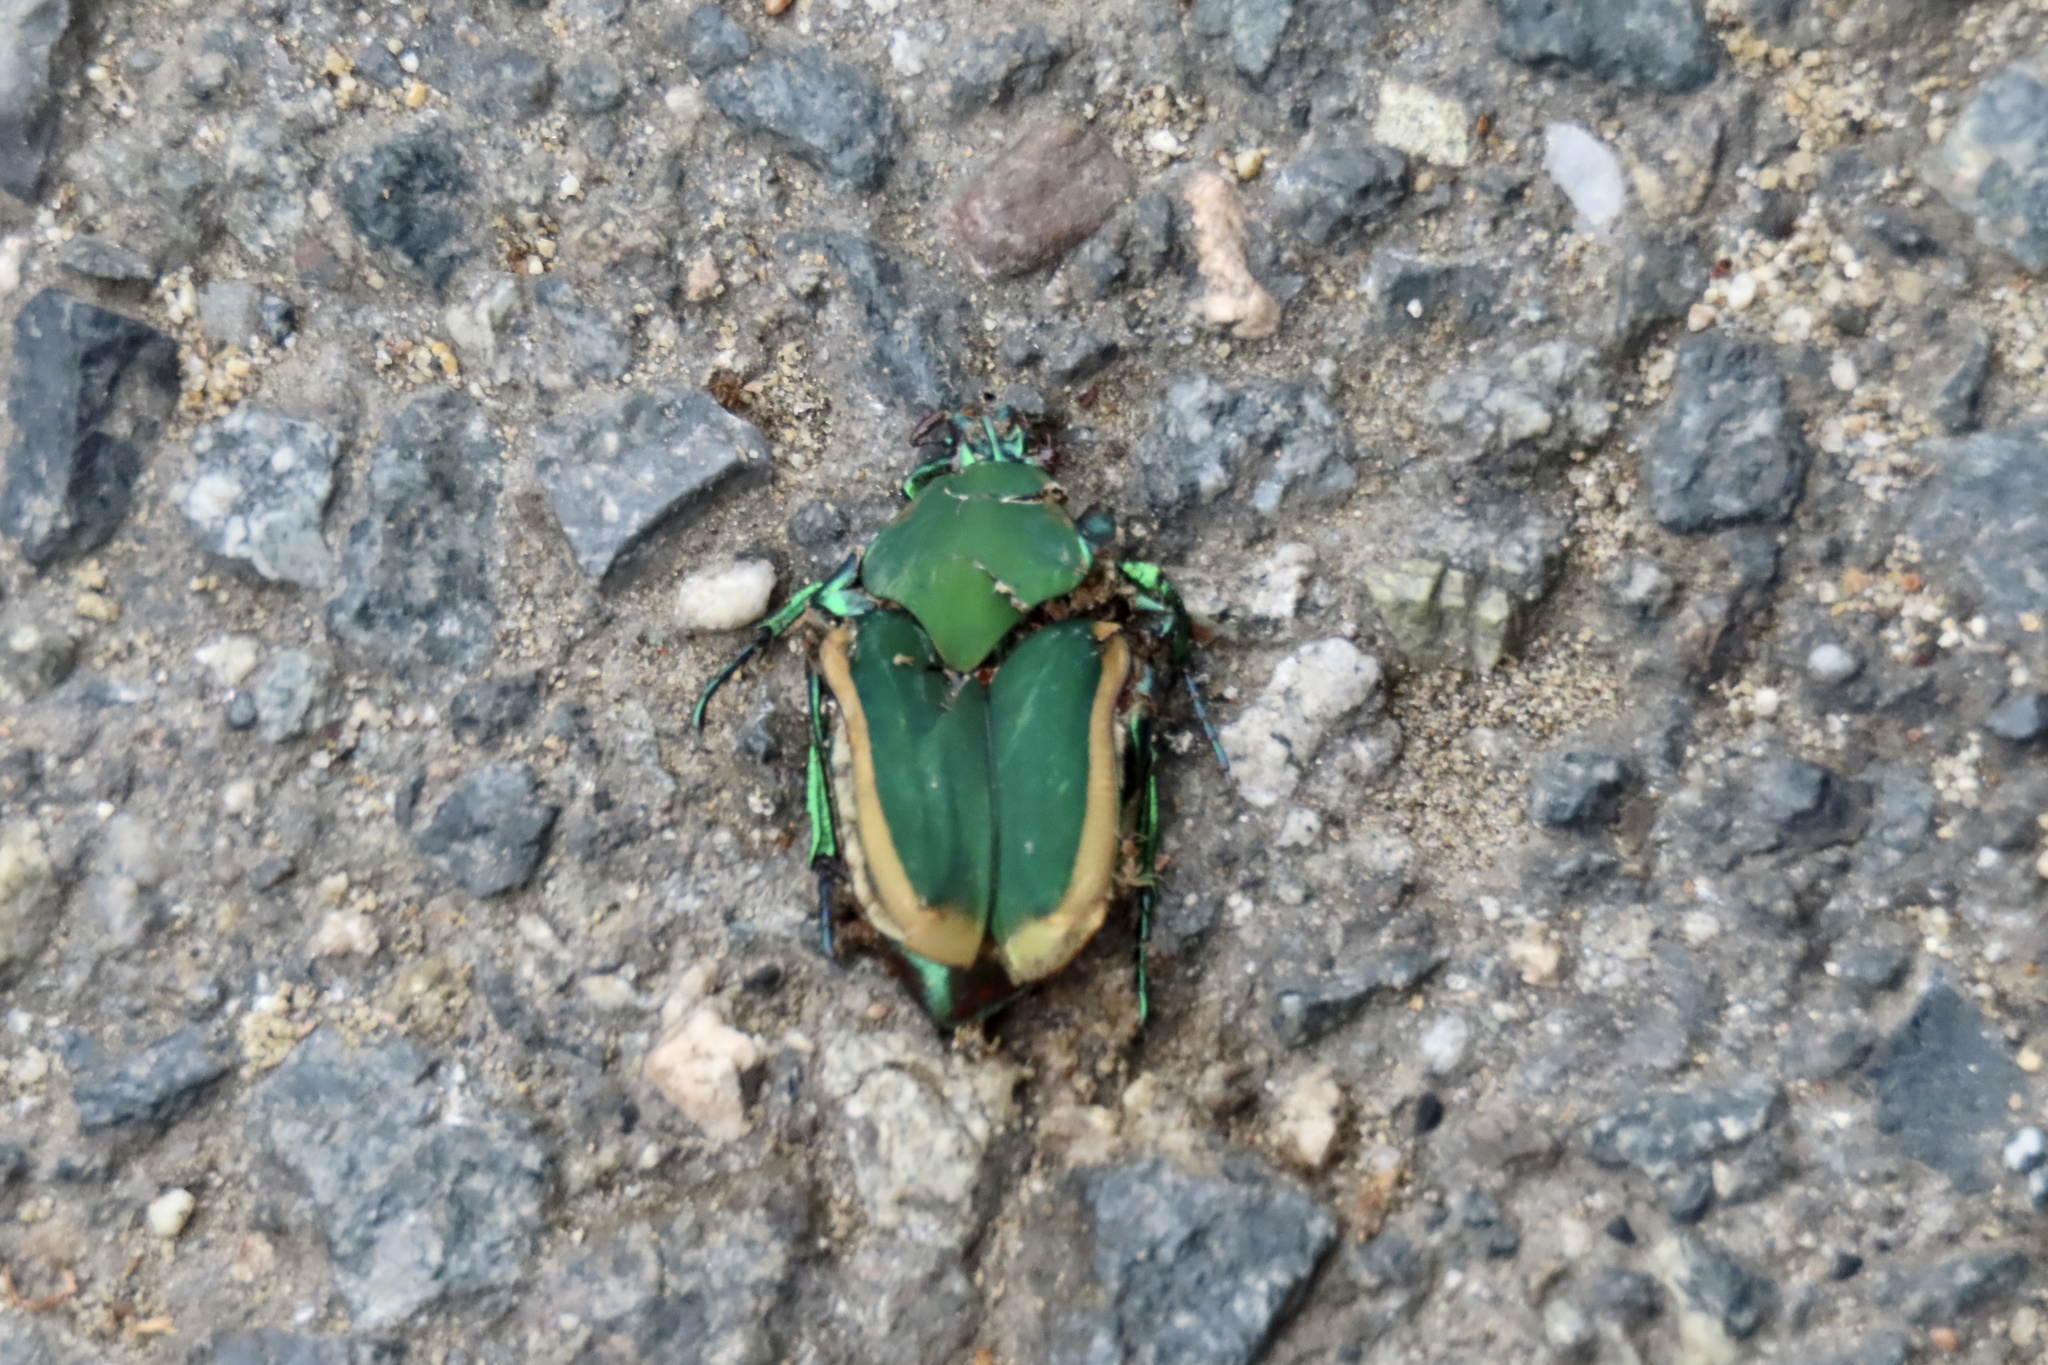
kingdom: Animalia
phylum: Arthropoda
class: Insecta
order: Coleoptera
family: Scarabaeidae
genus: Cotinis
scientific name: Cotinis mutabilis
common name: Figeater beetle
